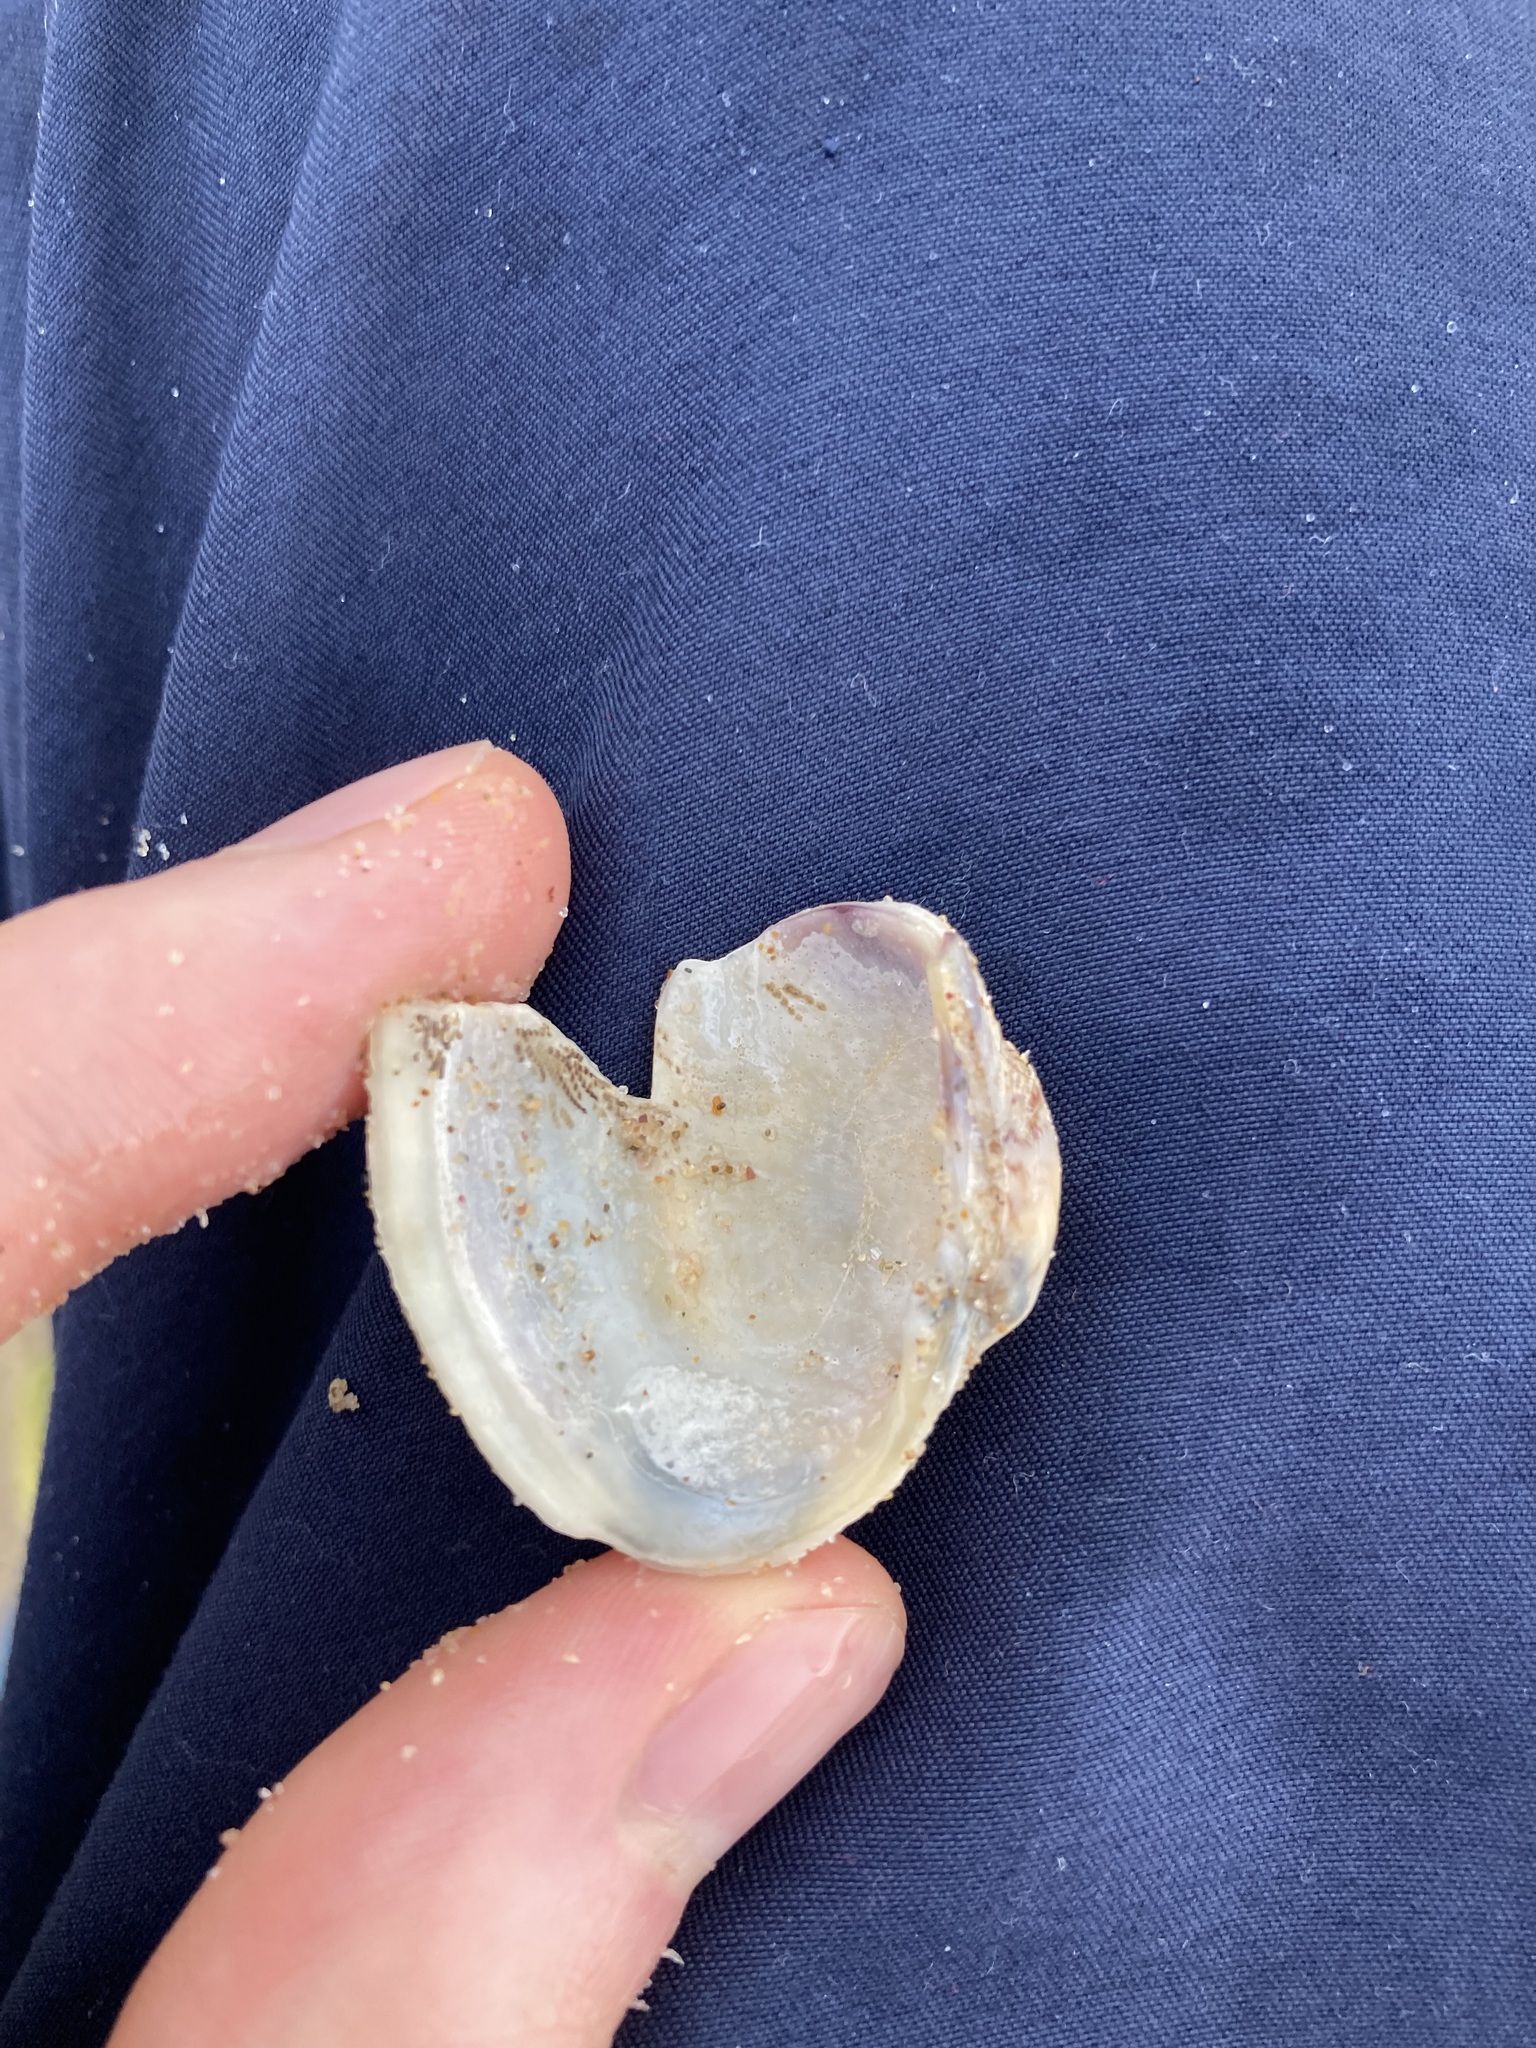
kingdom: Animalia
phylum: Mollusca
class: Bivalvia
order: Venerida
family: Veneridae
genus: Irus
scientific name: Irus crenatus
